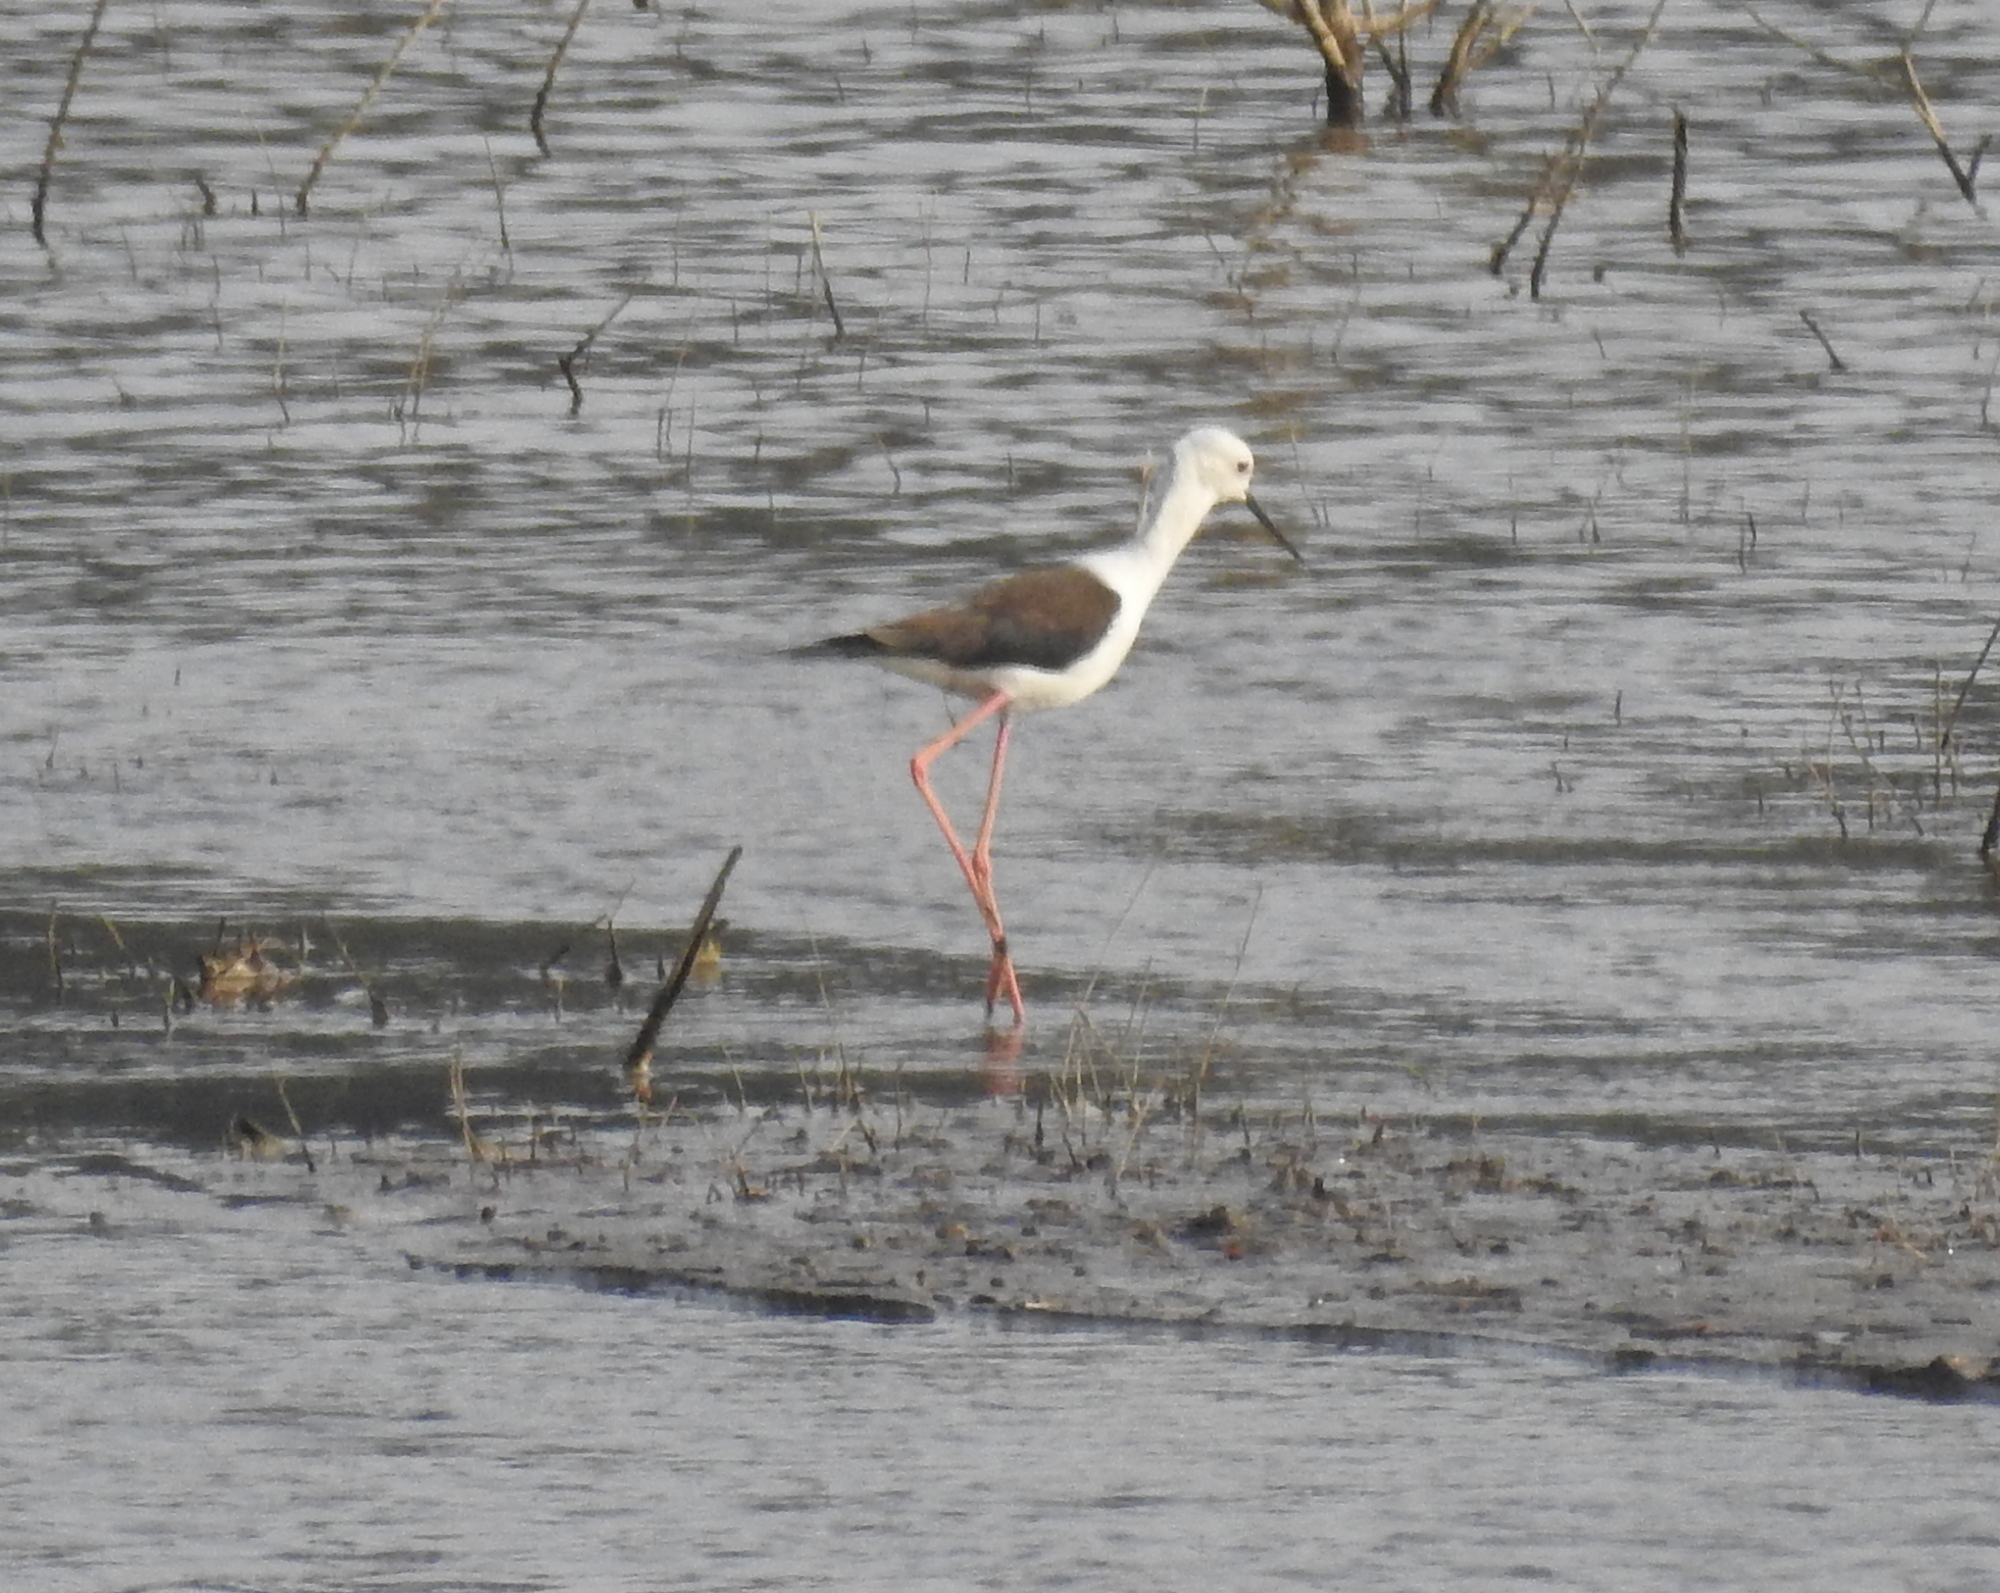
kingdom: Animalia
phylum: Chordata
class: Aves
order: Charadriiformes
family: Recurvirostridae
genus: Himantopus
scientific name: Himantopus himantopus
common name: Black-winged stilt
